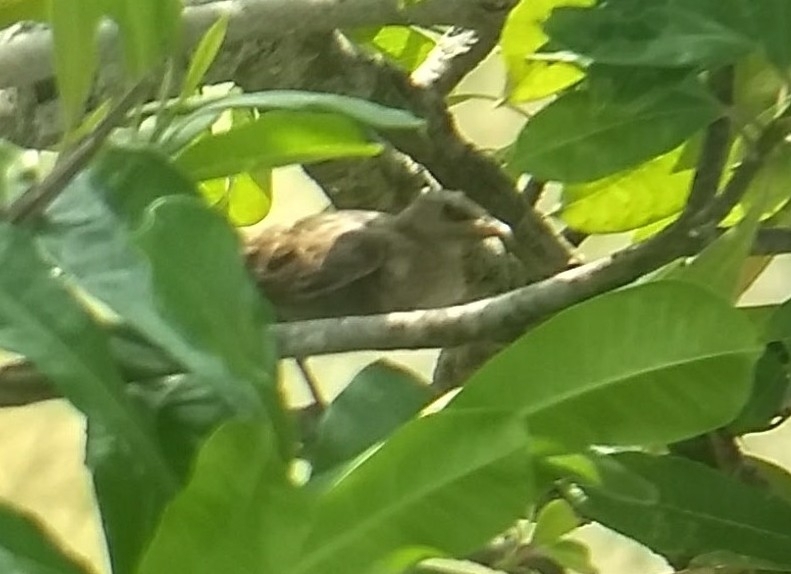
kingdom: Animalia
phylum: Chordata
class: Aves
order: Passeriformes
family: Sturnidae
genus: Pastor
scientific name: Pastor roseus
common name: Rosy starling
